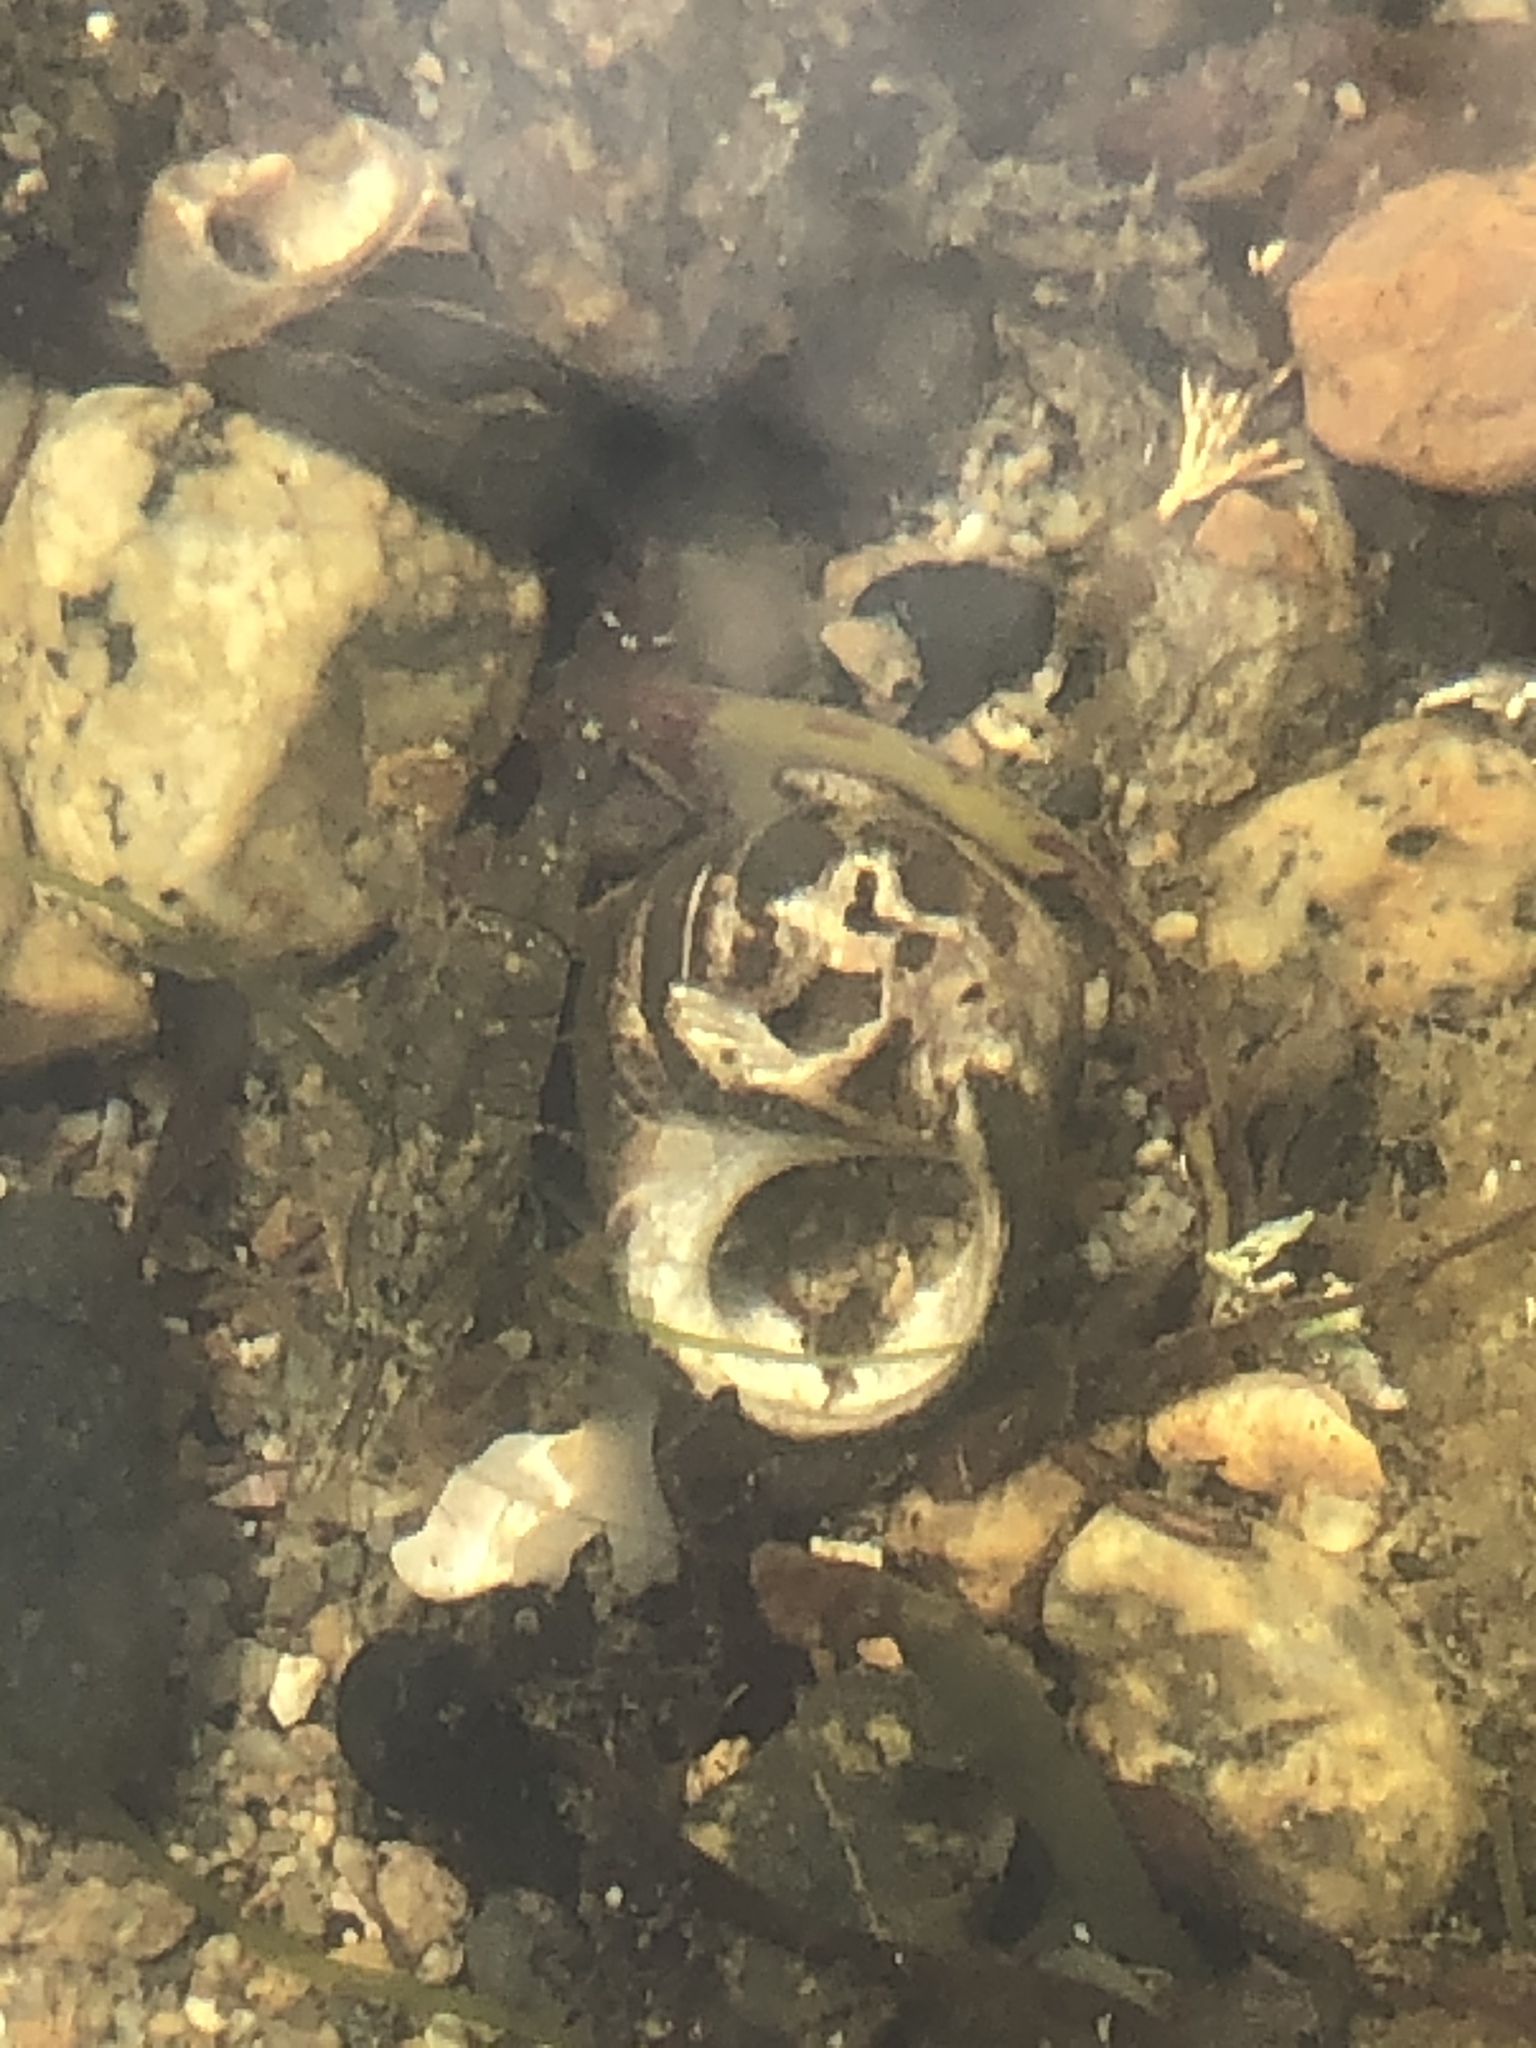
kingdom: Animalia
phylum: Arthropoda
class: Malacostraca
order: Decapoda
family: Crangonidae
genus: Crangon
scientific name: Crangon septemspinosa
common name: Bail shrimp
